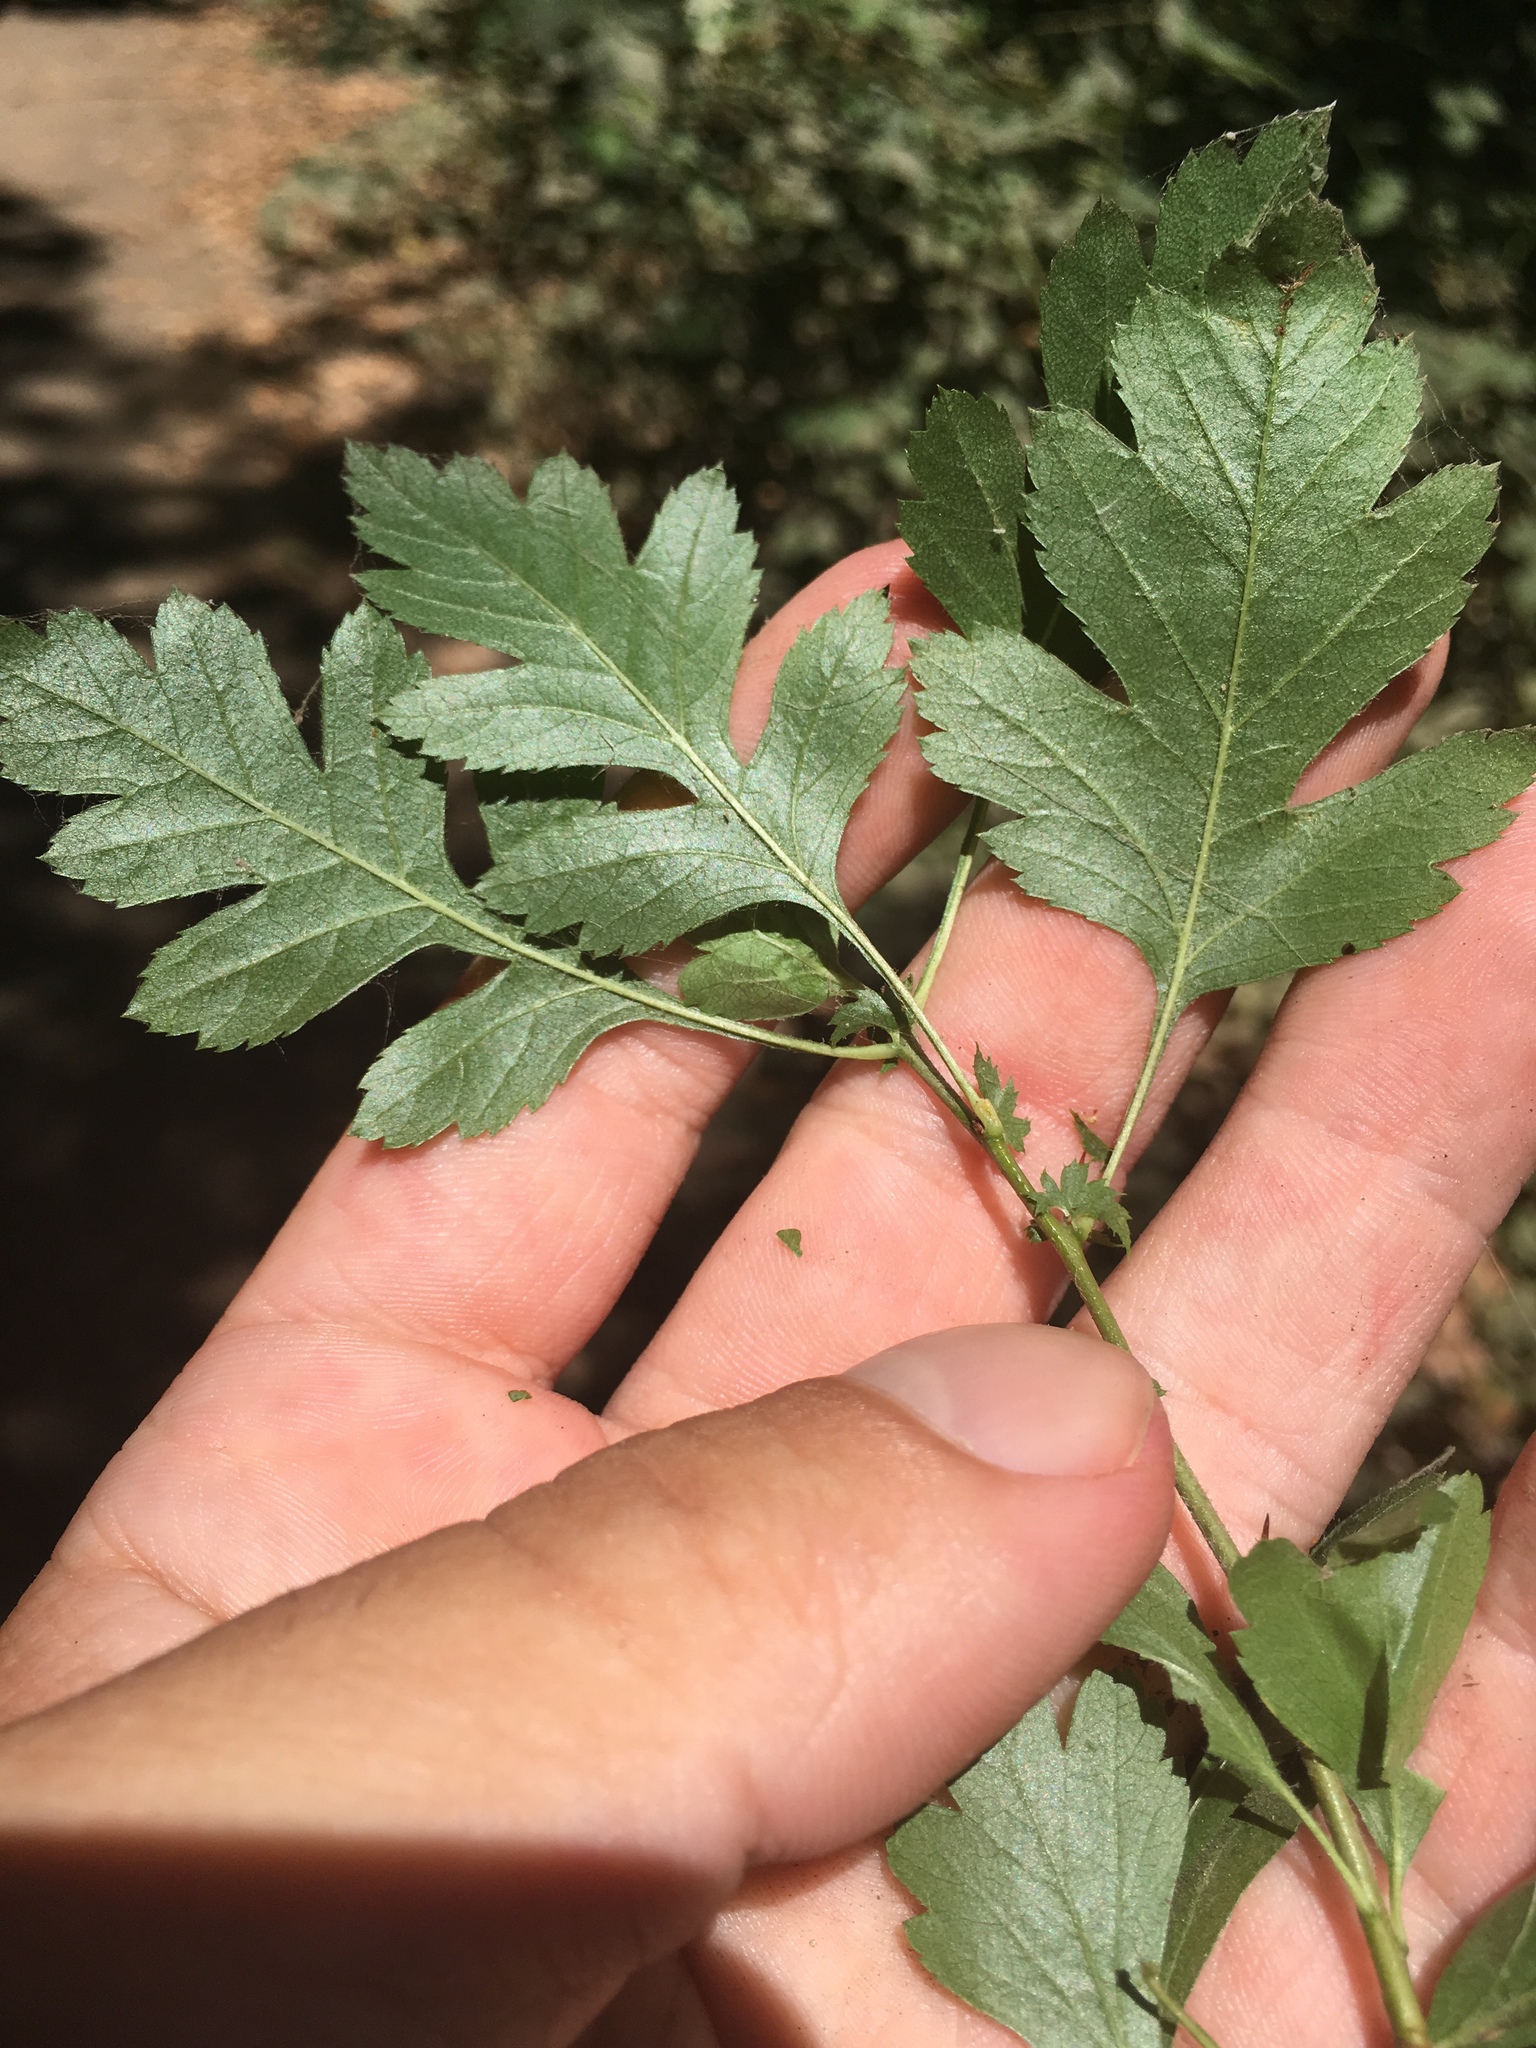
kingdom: Plantae
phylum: Tracheophyta
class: Magnoliopsida
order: Rosales
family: Rosaceae
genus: Crataegus
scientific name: Crataegus monogyna
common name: Hawthorn
